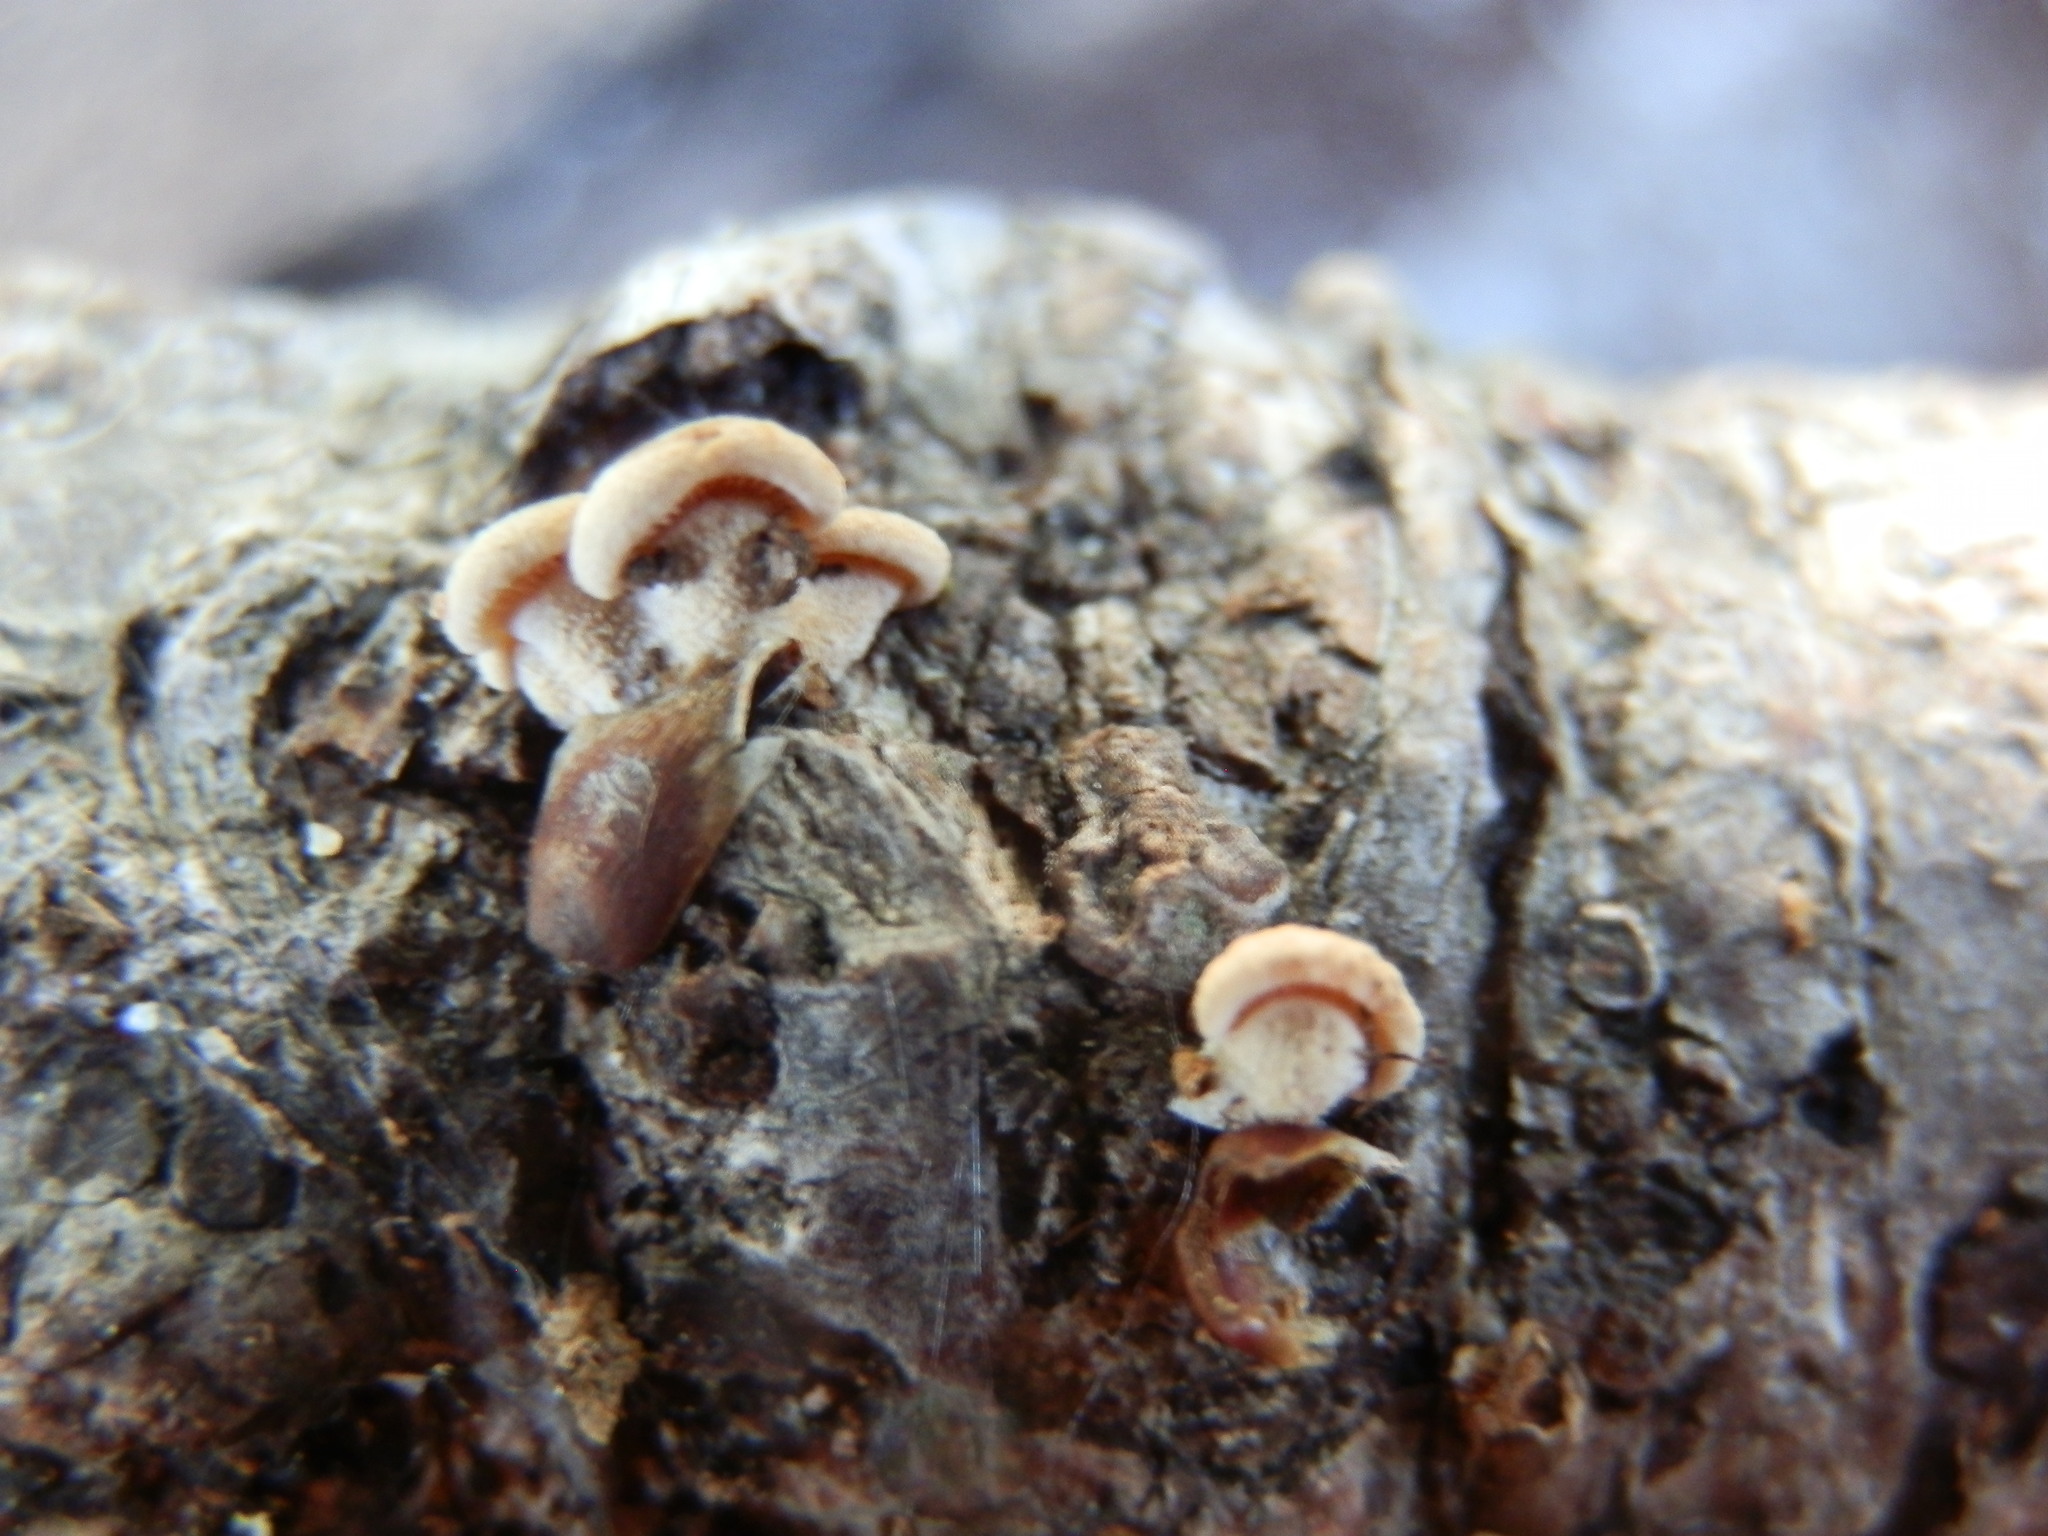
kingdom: Fungi
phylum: Basidiomycota
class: Agaricomycetes
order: Agaricales
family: Mycenaceae
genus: Panellus
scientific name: Panellus stipticus
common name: Bitter oysterling
